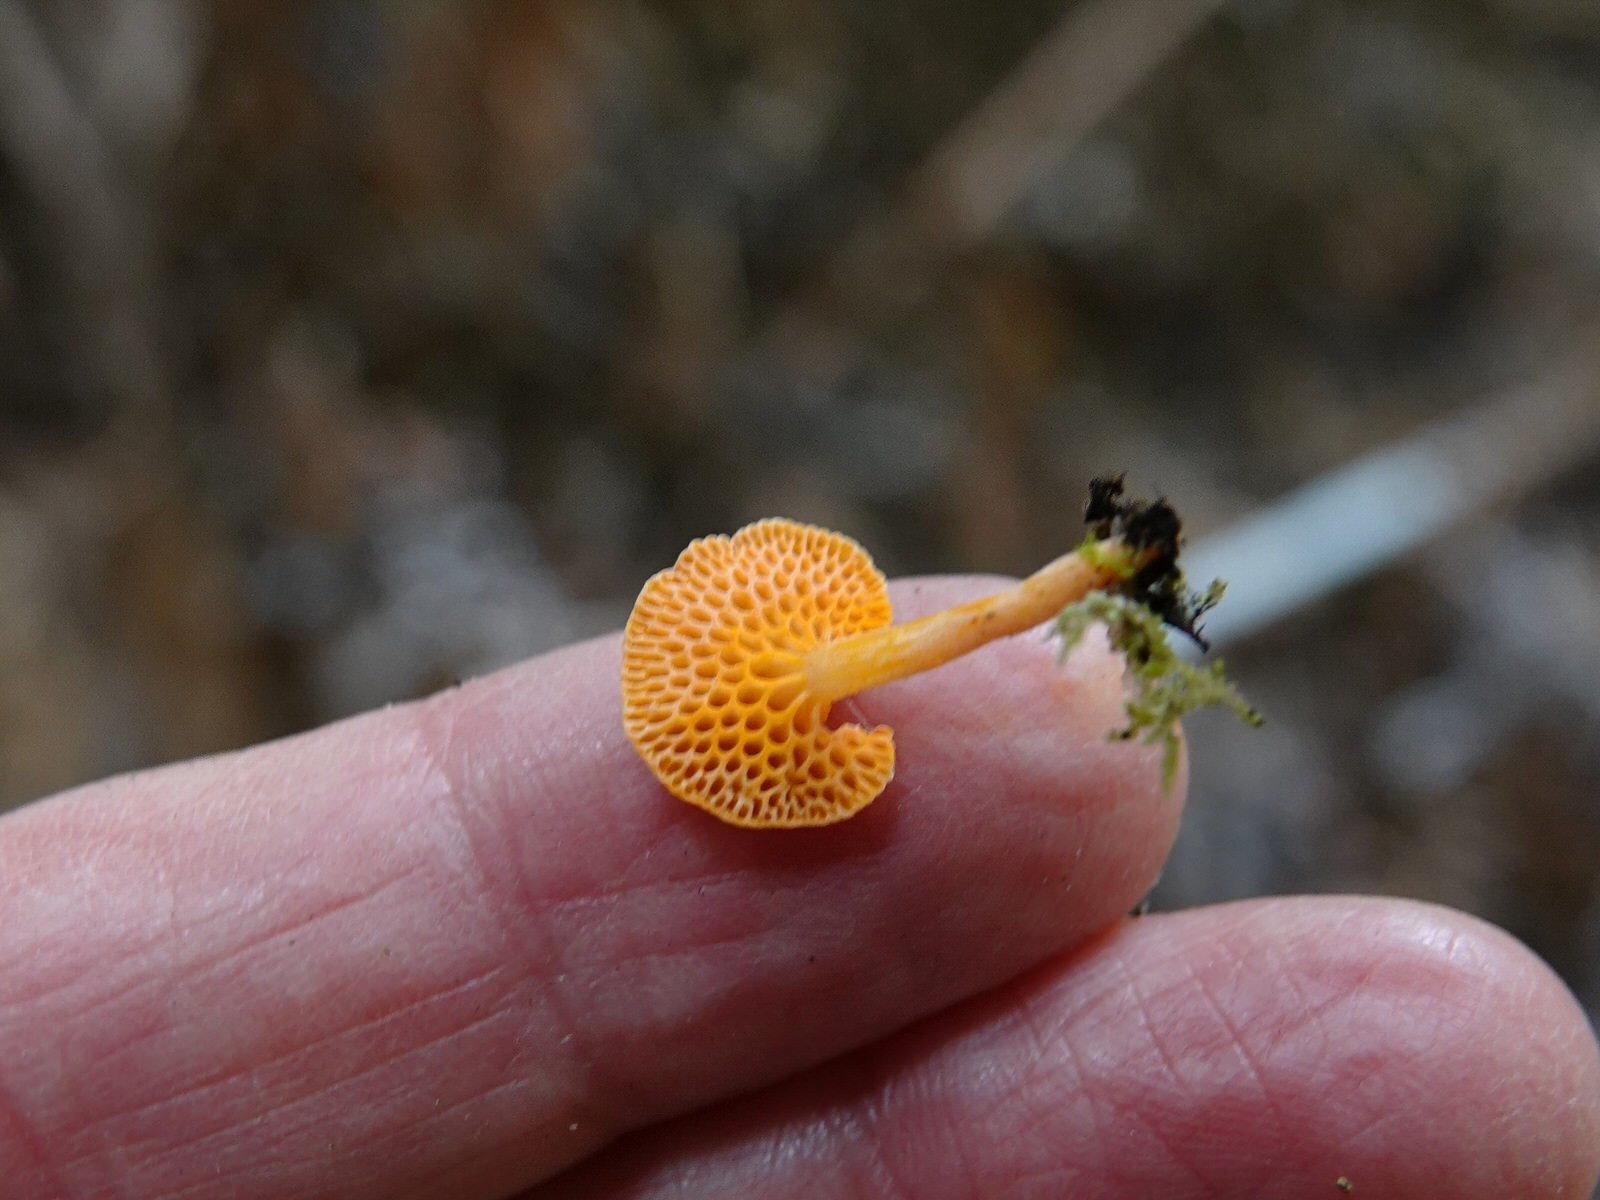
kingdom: Fungi
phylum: Basidiomycota
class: Agaricomycetes
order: Agaricales
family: Mycenaceae
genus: Favolaschia
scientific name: Favolaschia claudopus
